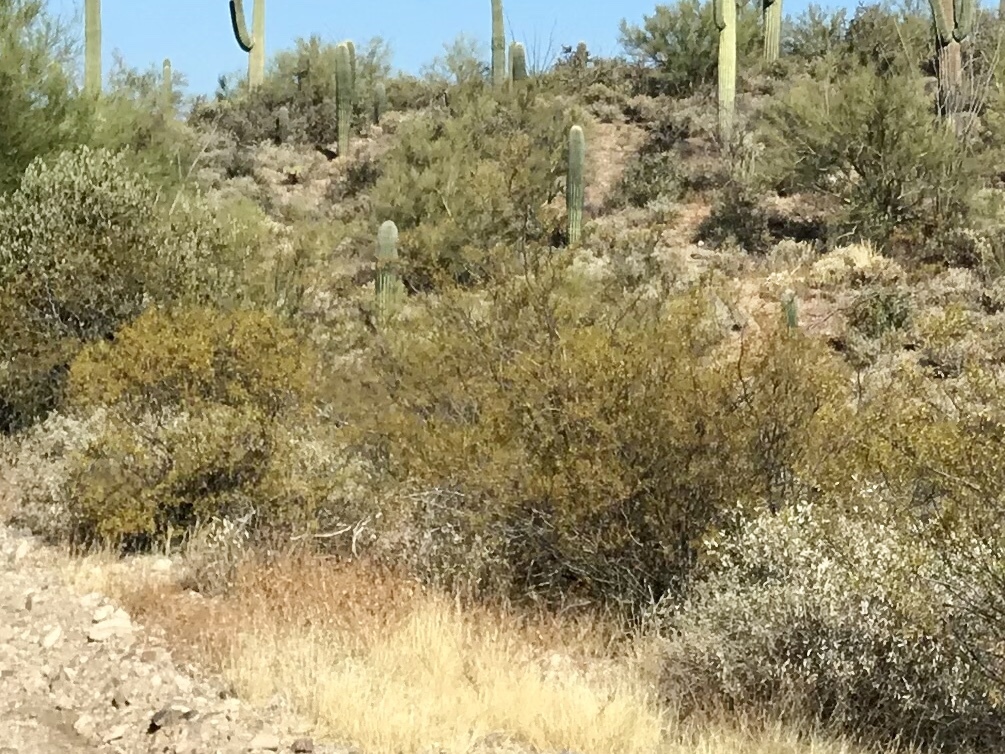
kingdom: Plantae
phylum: Tracheophyta
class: Magnoliopsida
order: Zygophyllales
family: Zygophyllaceae
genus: Larrea
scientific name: Larrea tridentata
